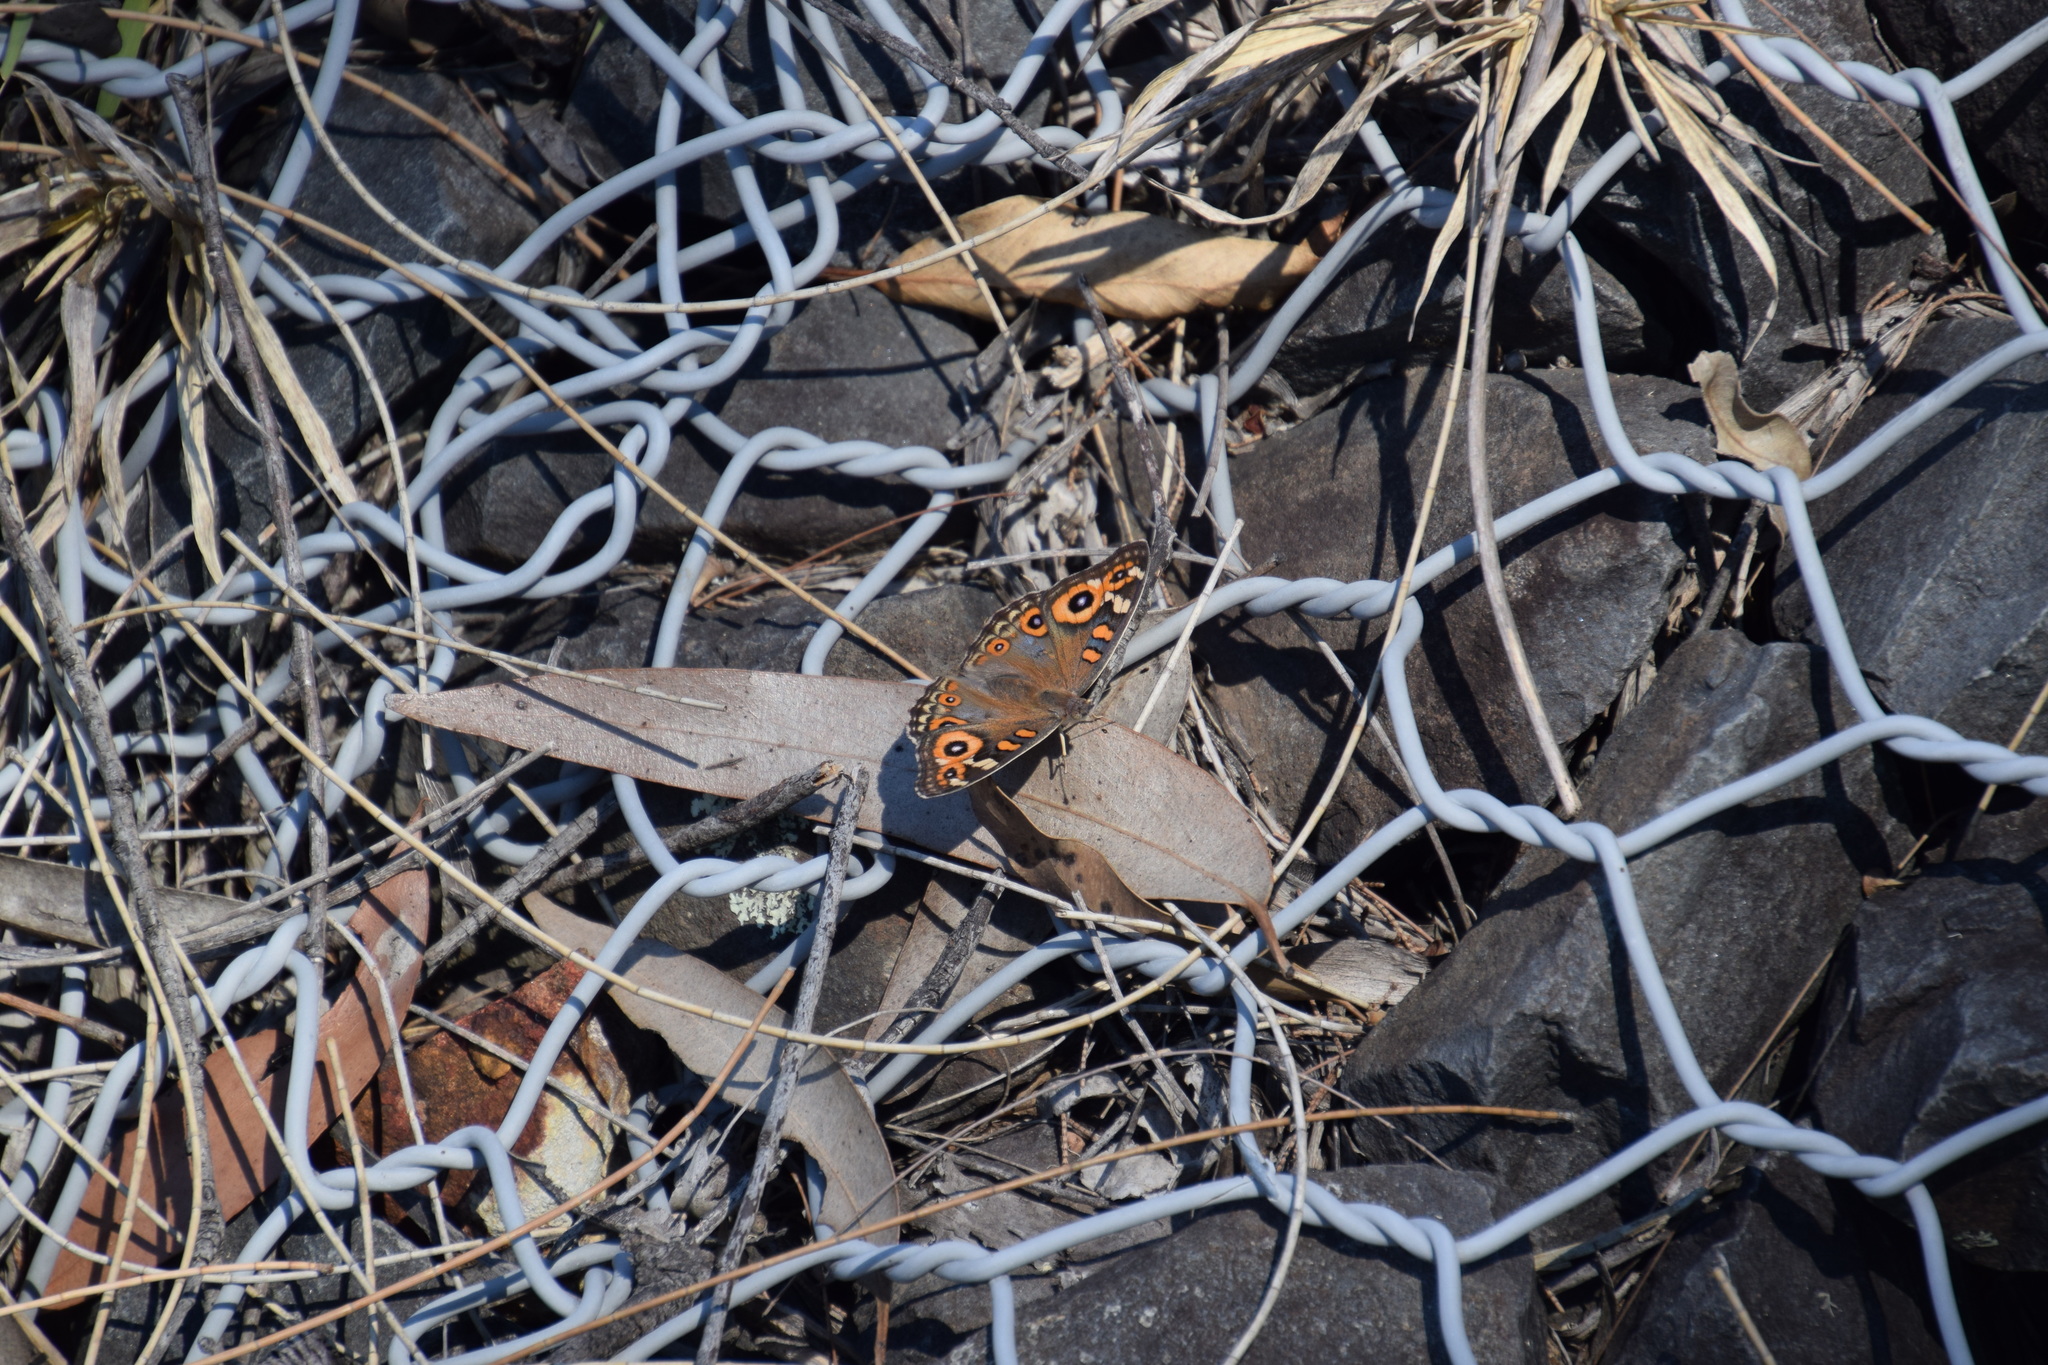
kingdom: Animalia
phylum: Arthropoda
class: Insecta
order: Lepidoptera
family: Nymphalidae
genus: Junonia
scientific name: Junonia villida
